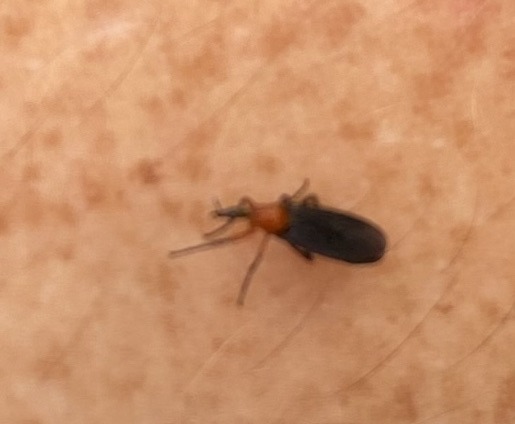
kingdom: Animalia
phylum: Arthropoda
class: Insecta
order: Diptera
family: Bibionidae
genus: Dilophus
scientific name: Dilophus spinipes
